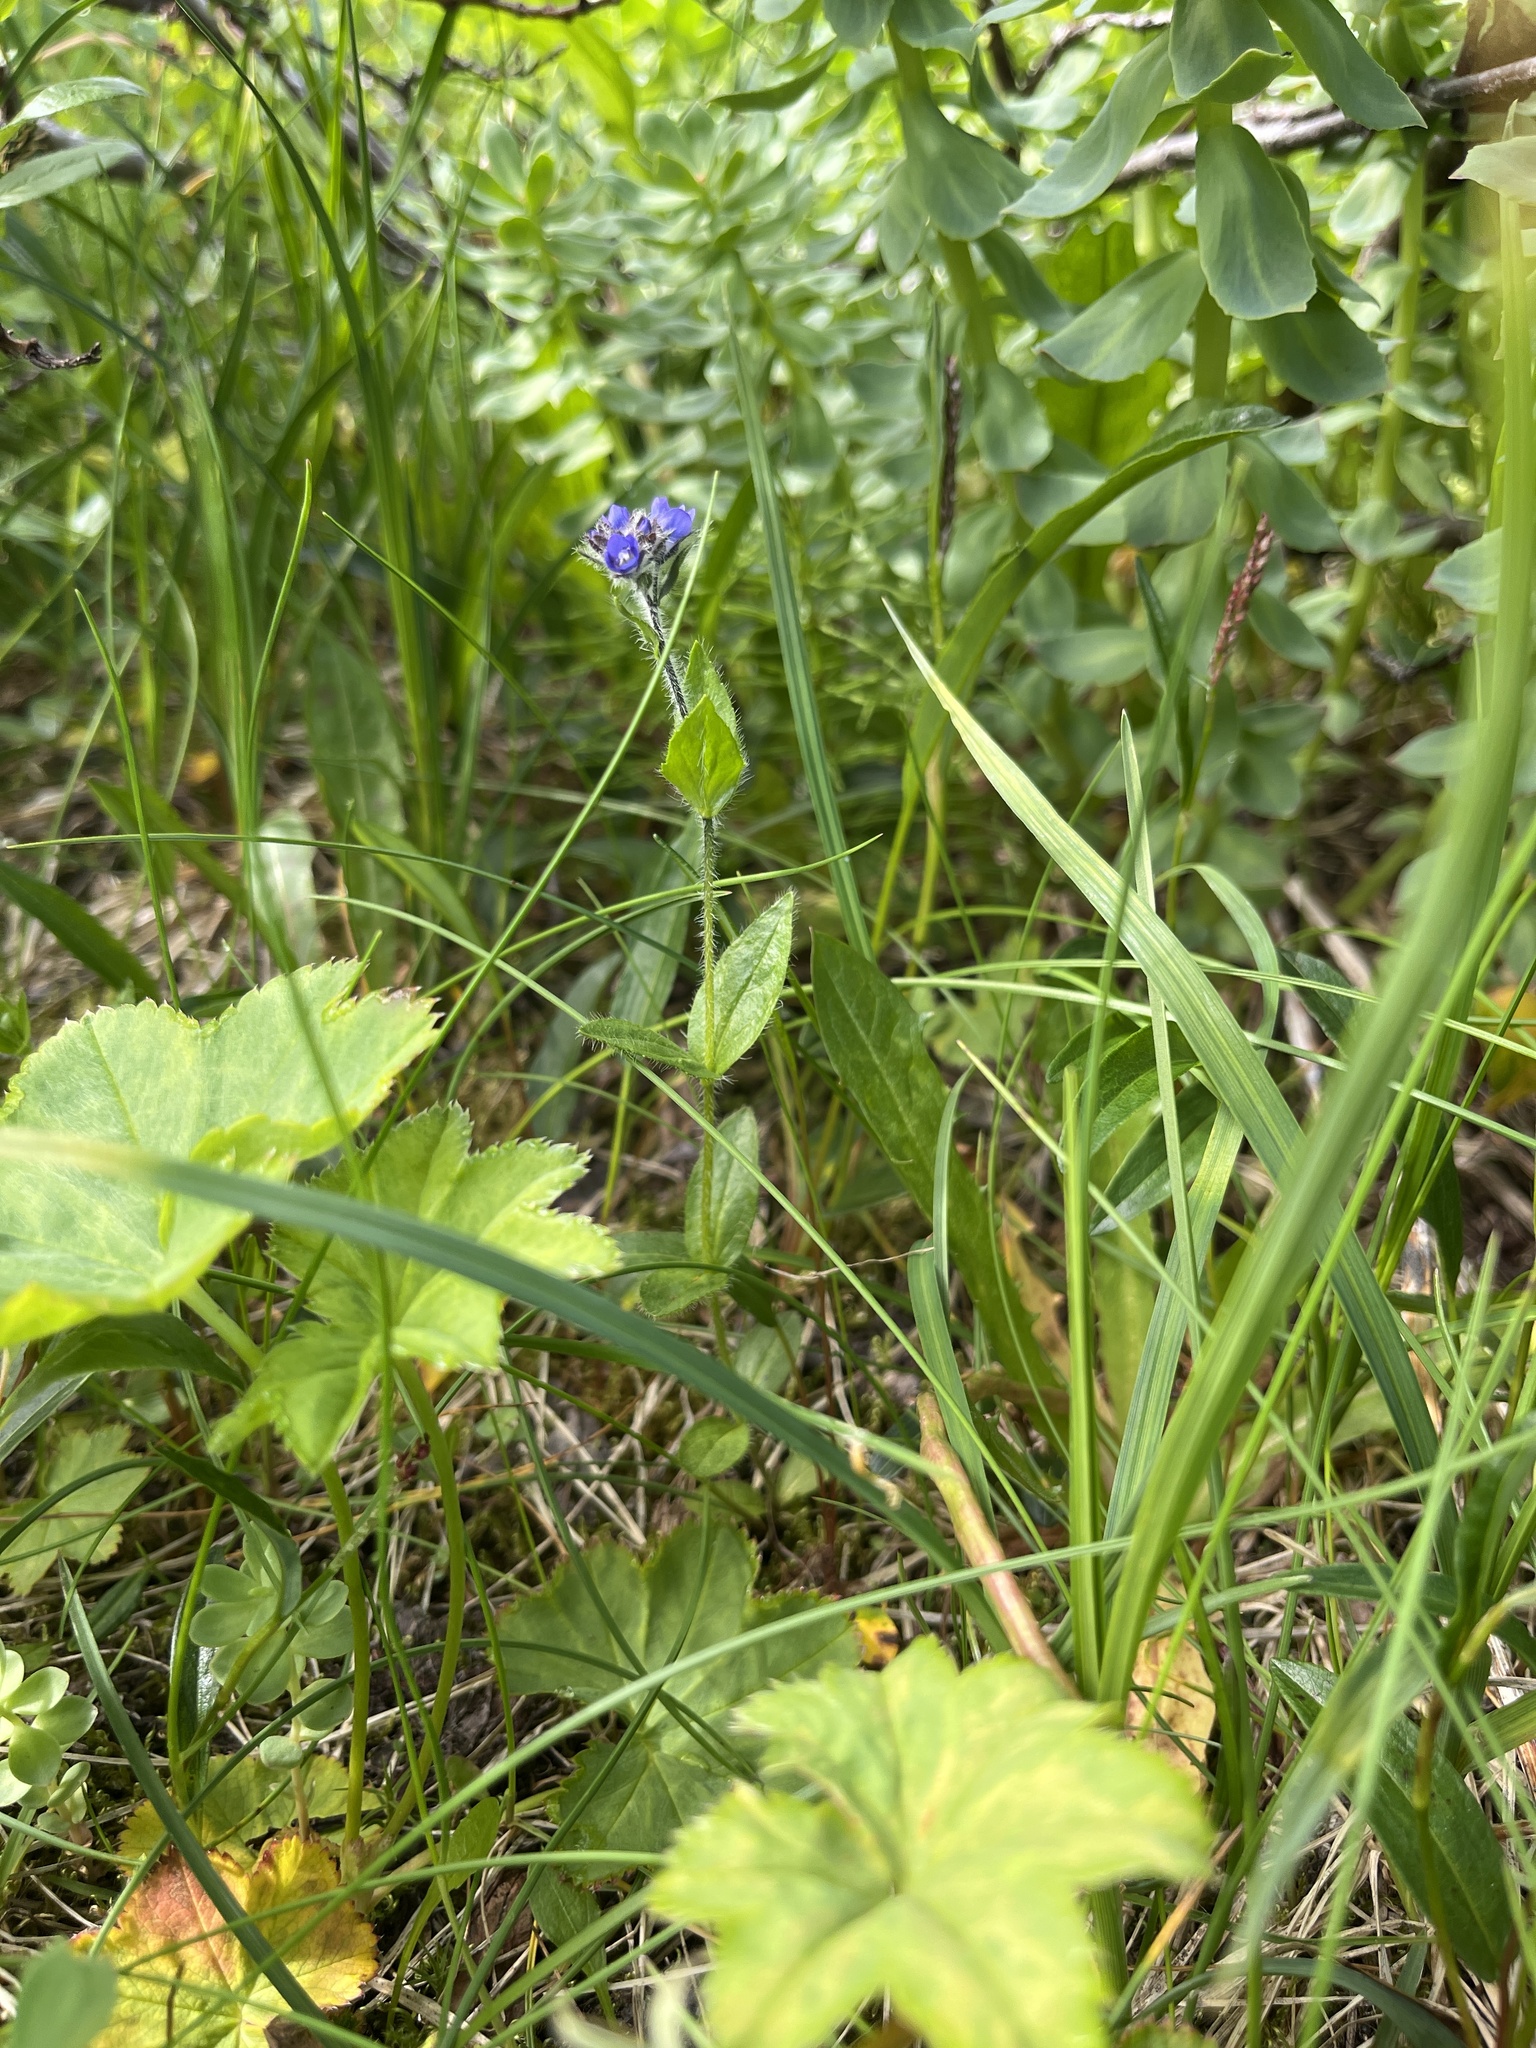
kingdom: Plantae
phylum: Tracheophyta
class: Magnoliopsida
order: Lamiales
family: Plantaginaceae
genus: Veronica
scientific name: Veronica wormskjoldii
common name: American alpine speedwell
